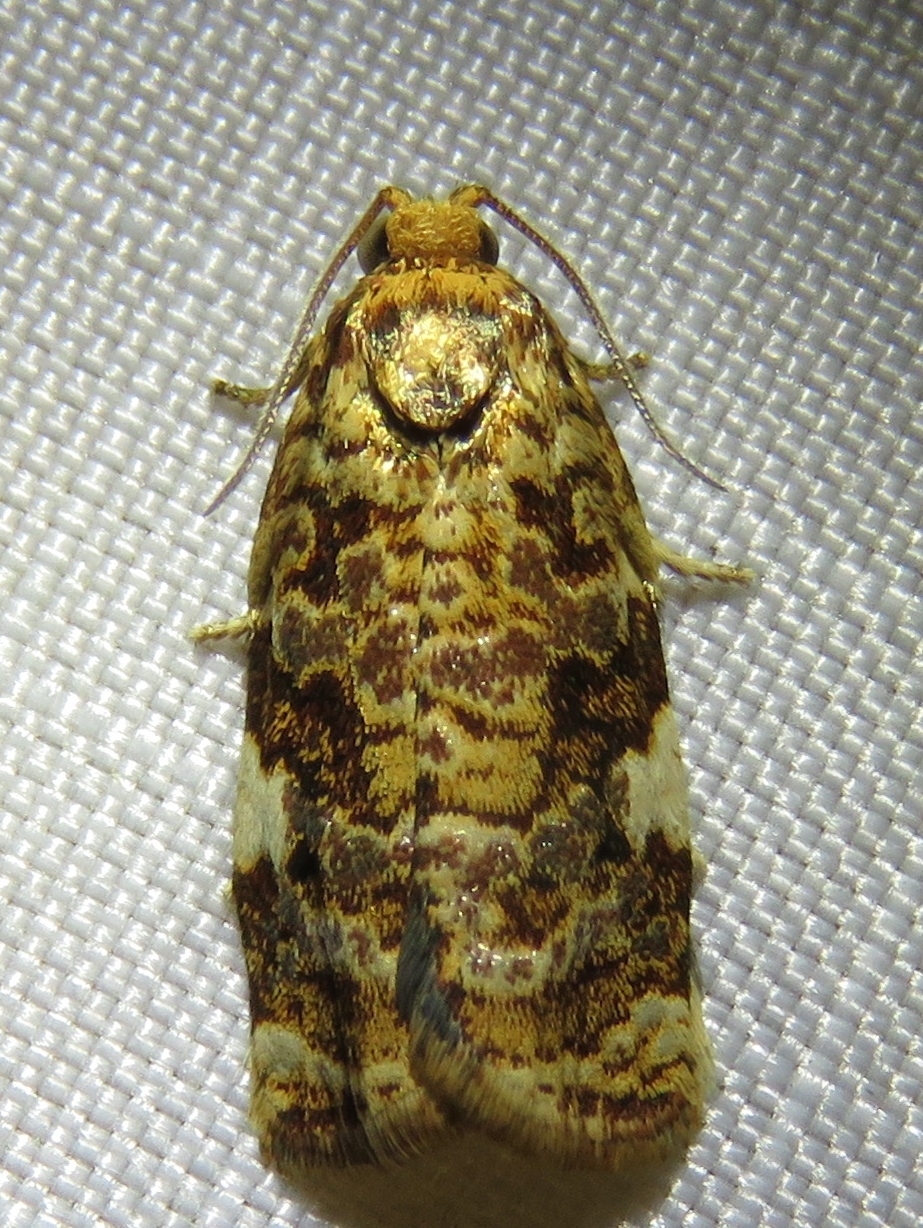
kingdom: Animalia
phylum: Arthropoda
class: Insecta
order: Lepidoptera
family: Tortricidae
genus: Archips
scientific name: Archips argyrospila
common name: Fruit-tree leafroller moth
